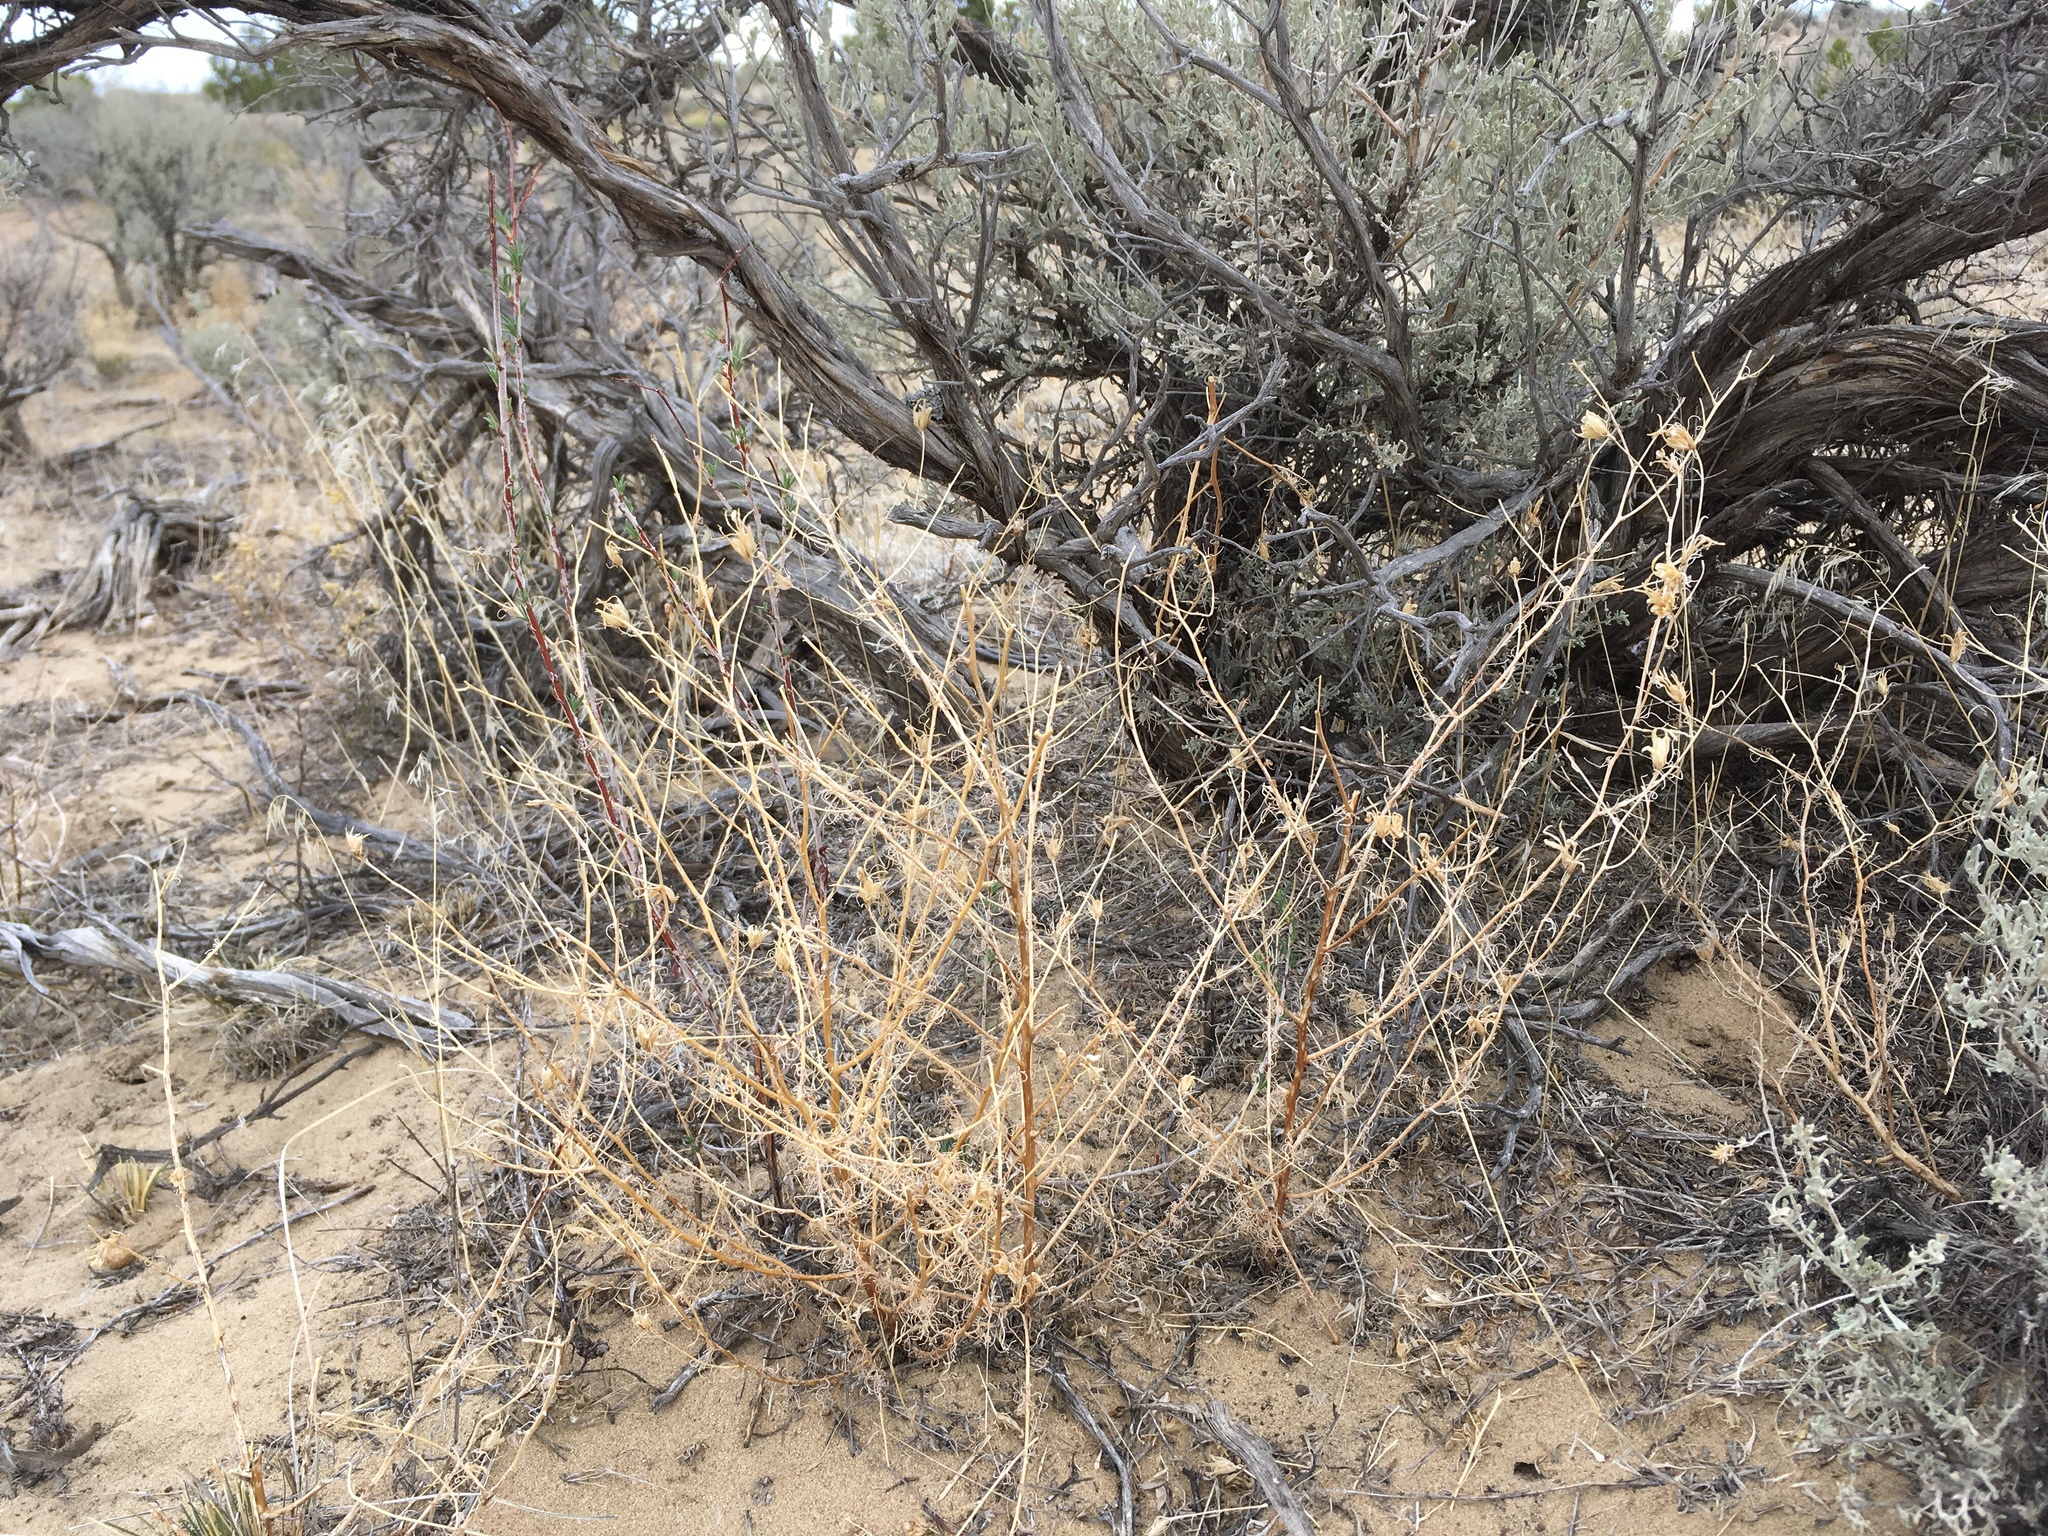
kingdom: Plantae
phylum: Tracheophyta
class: Magnoliopsida
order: Lamiales
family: Orobanchaceae
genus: Cordylanthus
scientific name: Cordylanthus wrightii
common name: Wright's birdsbeak
